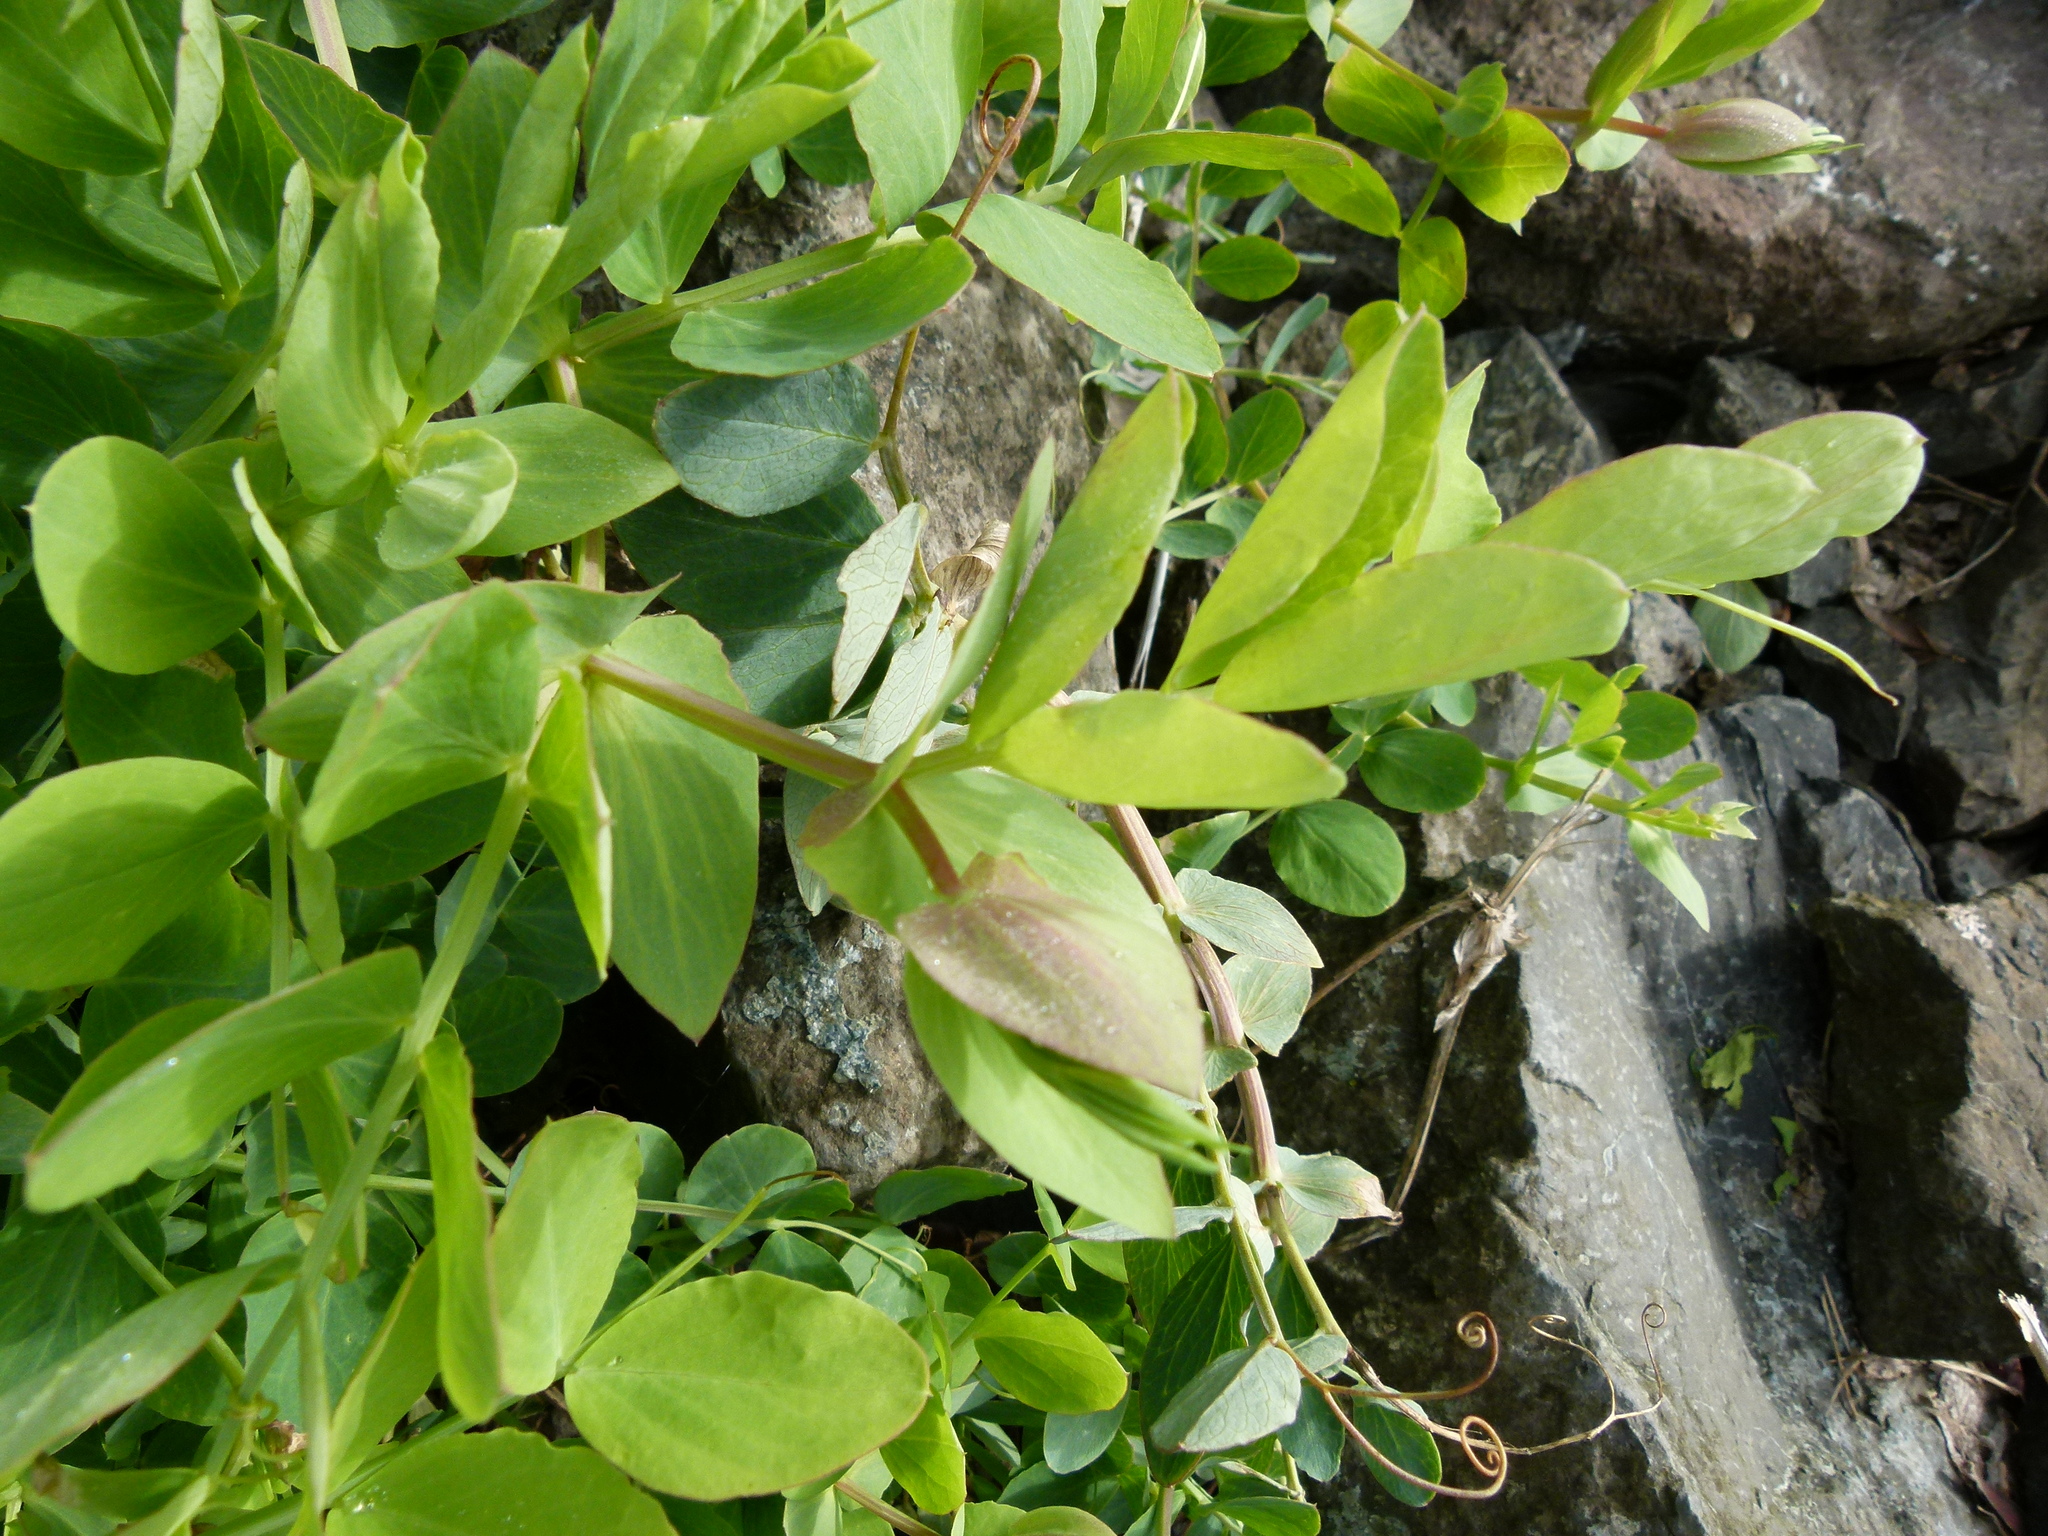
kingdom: Plantae
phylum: Tracheophyta
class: Magnoliopsida
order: Fabales
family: Fabaceae
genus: Lathyrus
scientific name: Lathyrus japonicus
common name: Sea pea
